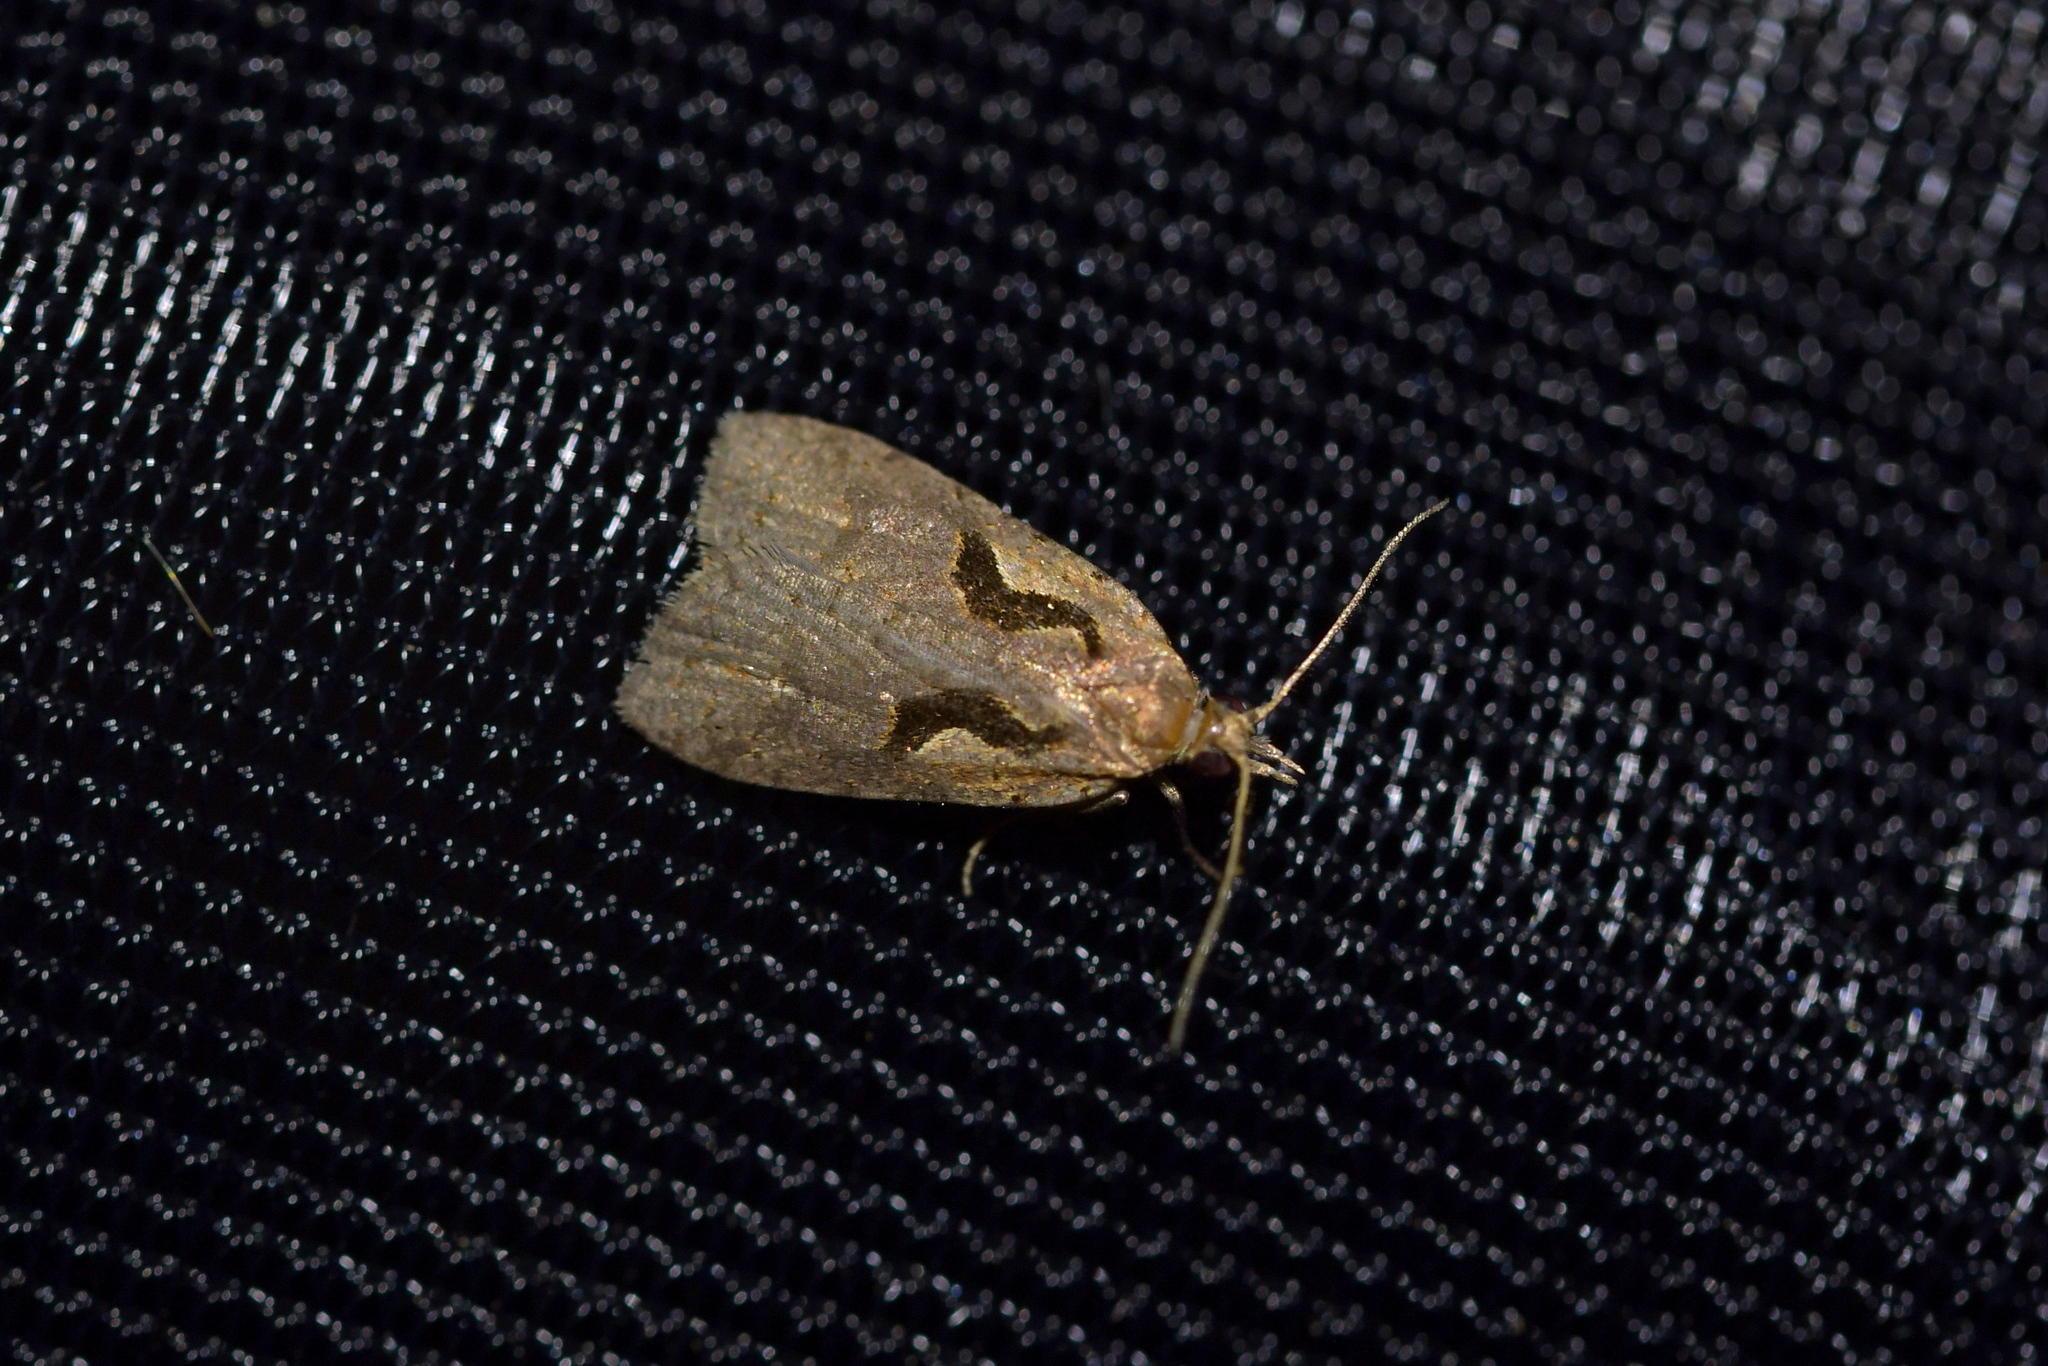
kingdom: Animalia
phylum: Arthropoda
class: Insecta
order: Lepidoptera
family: Tortricidae
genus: Cnephasia
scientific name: Cnephasia jactatana
